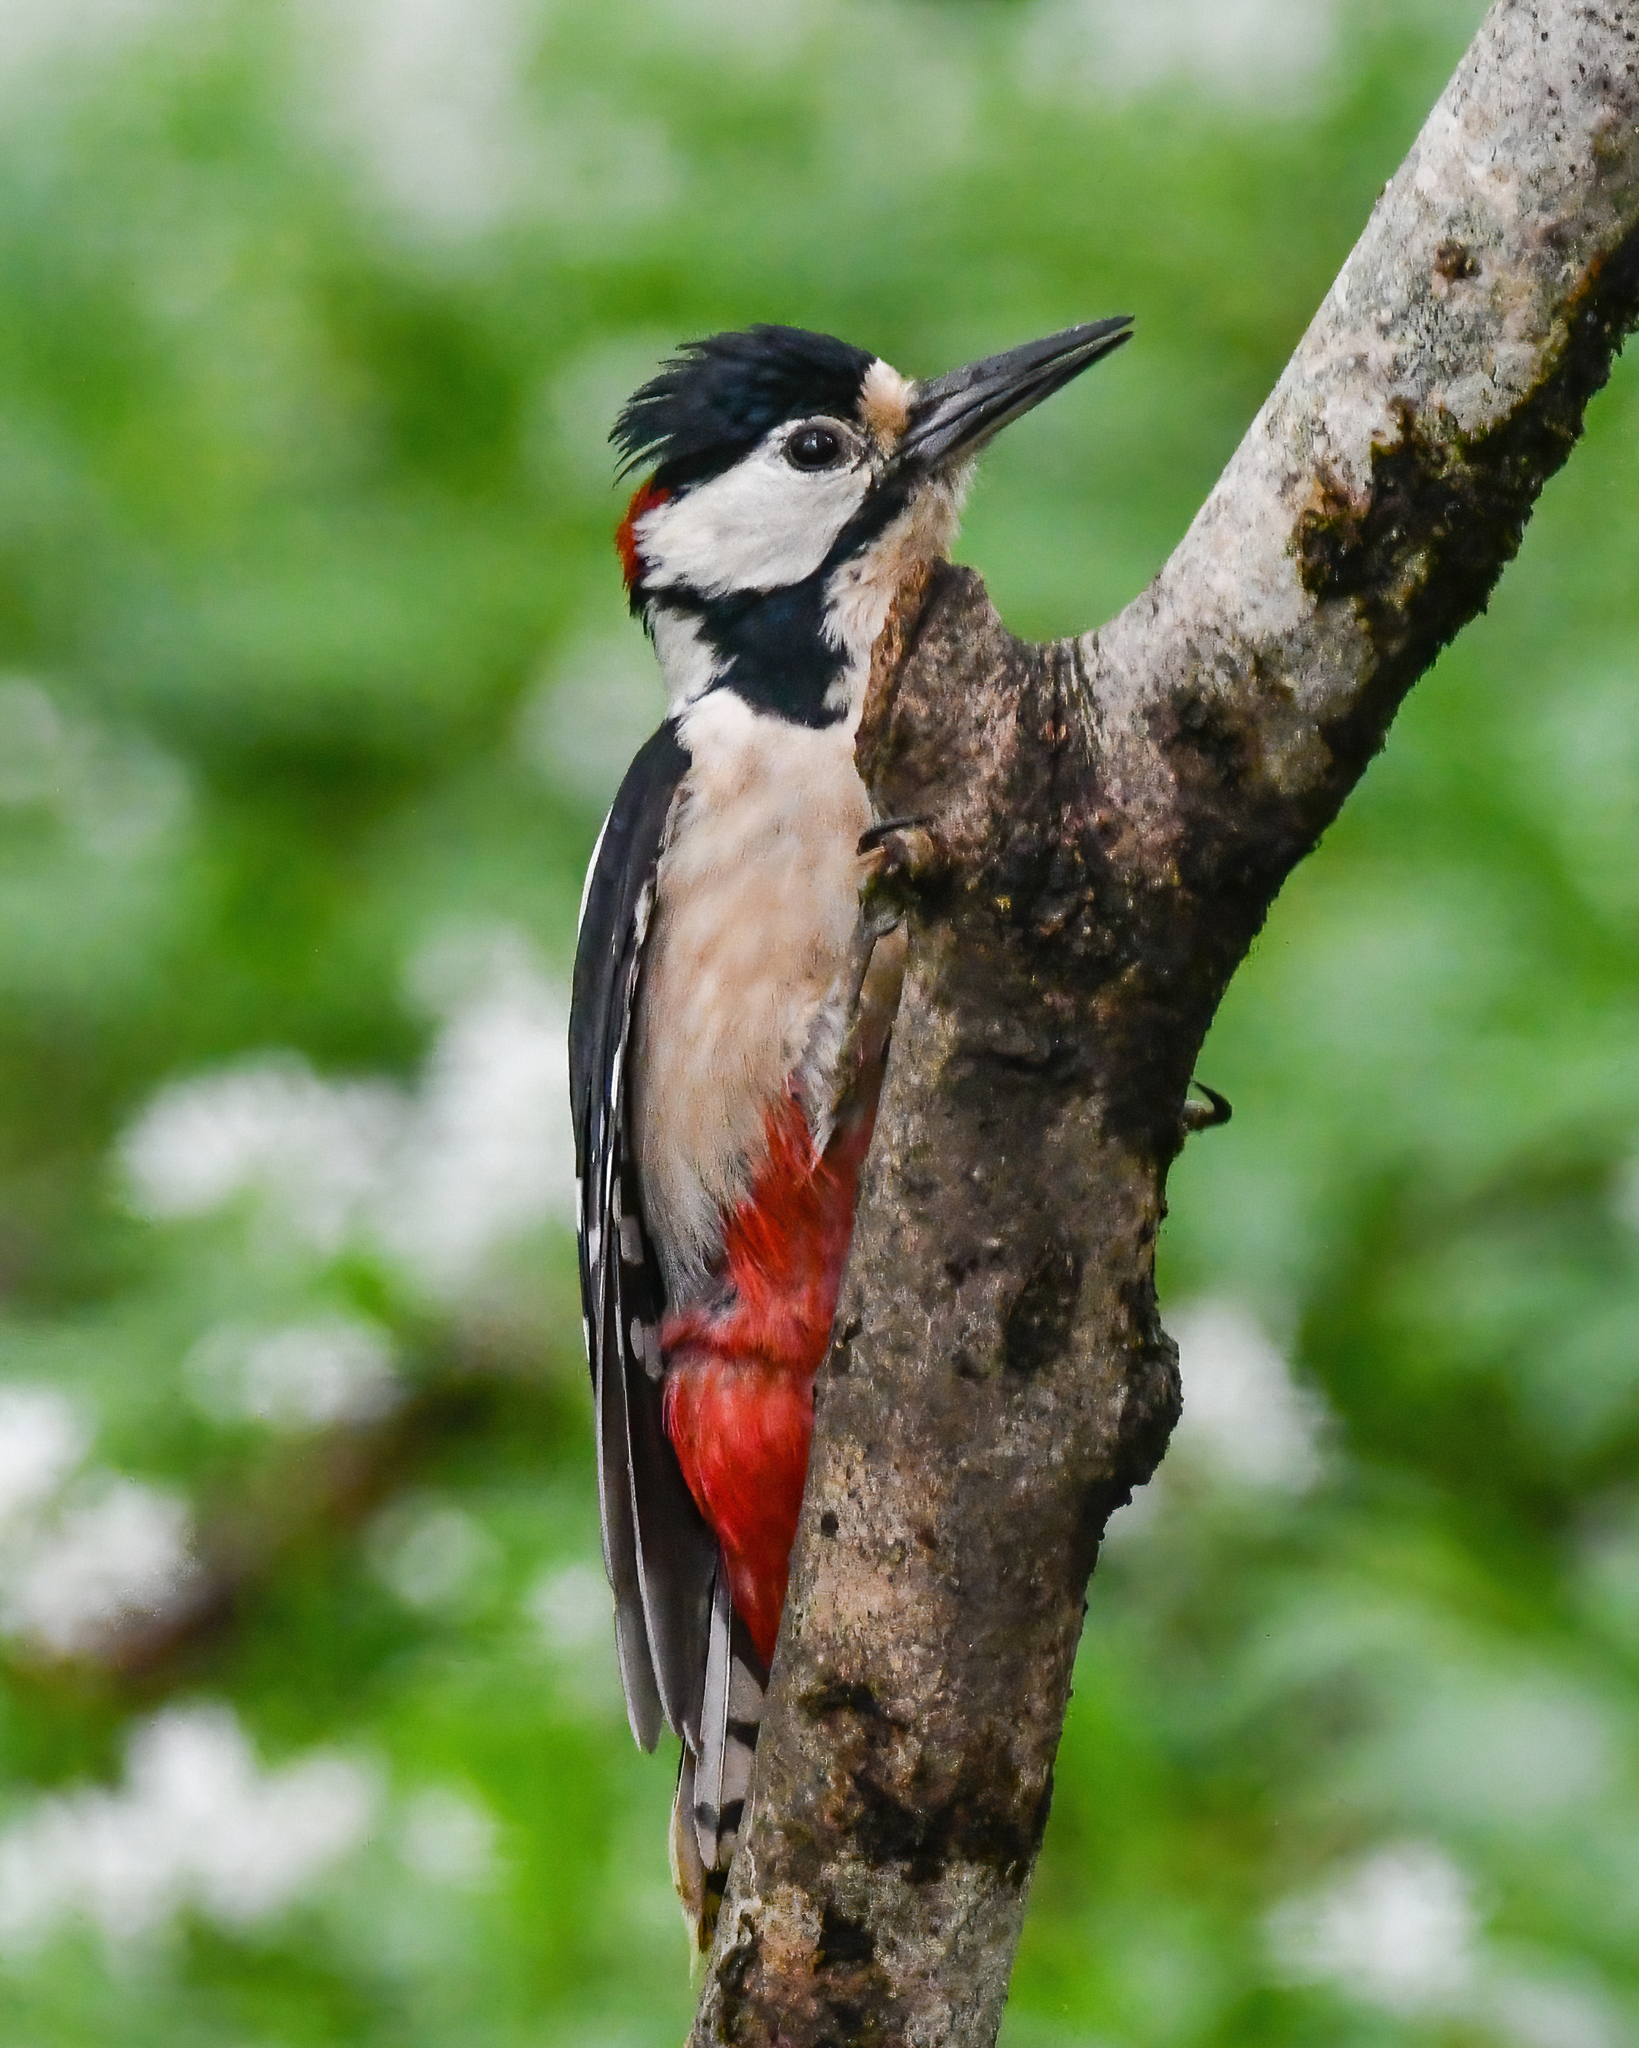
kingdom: Animalia
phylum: Chordata
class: Aves
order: Piciformes
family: Picidae
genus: Dendrocopos
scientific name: Dendrocopos major
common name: Great spotted woodpecker
